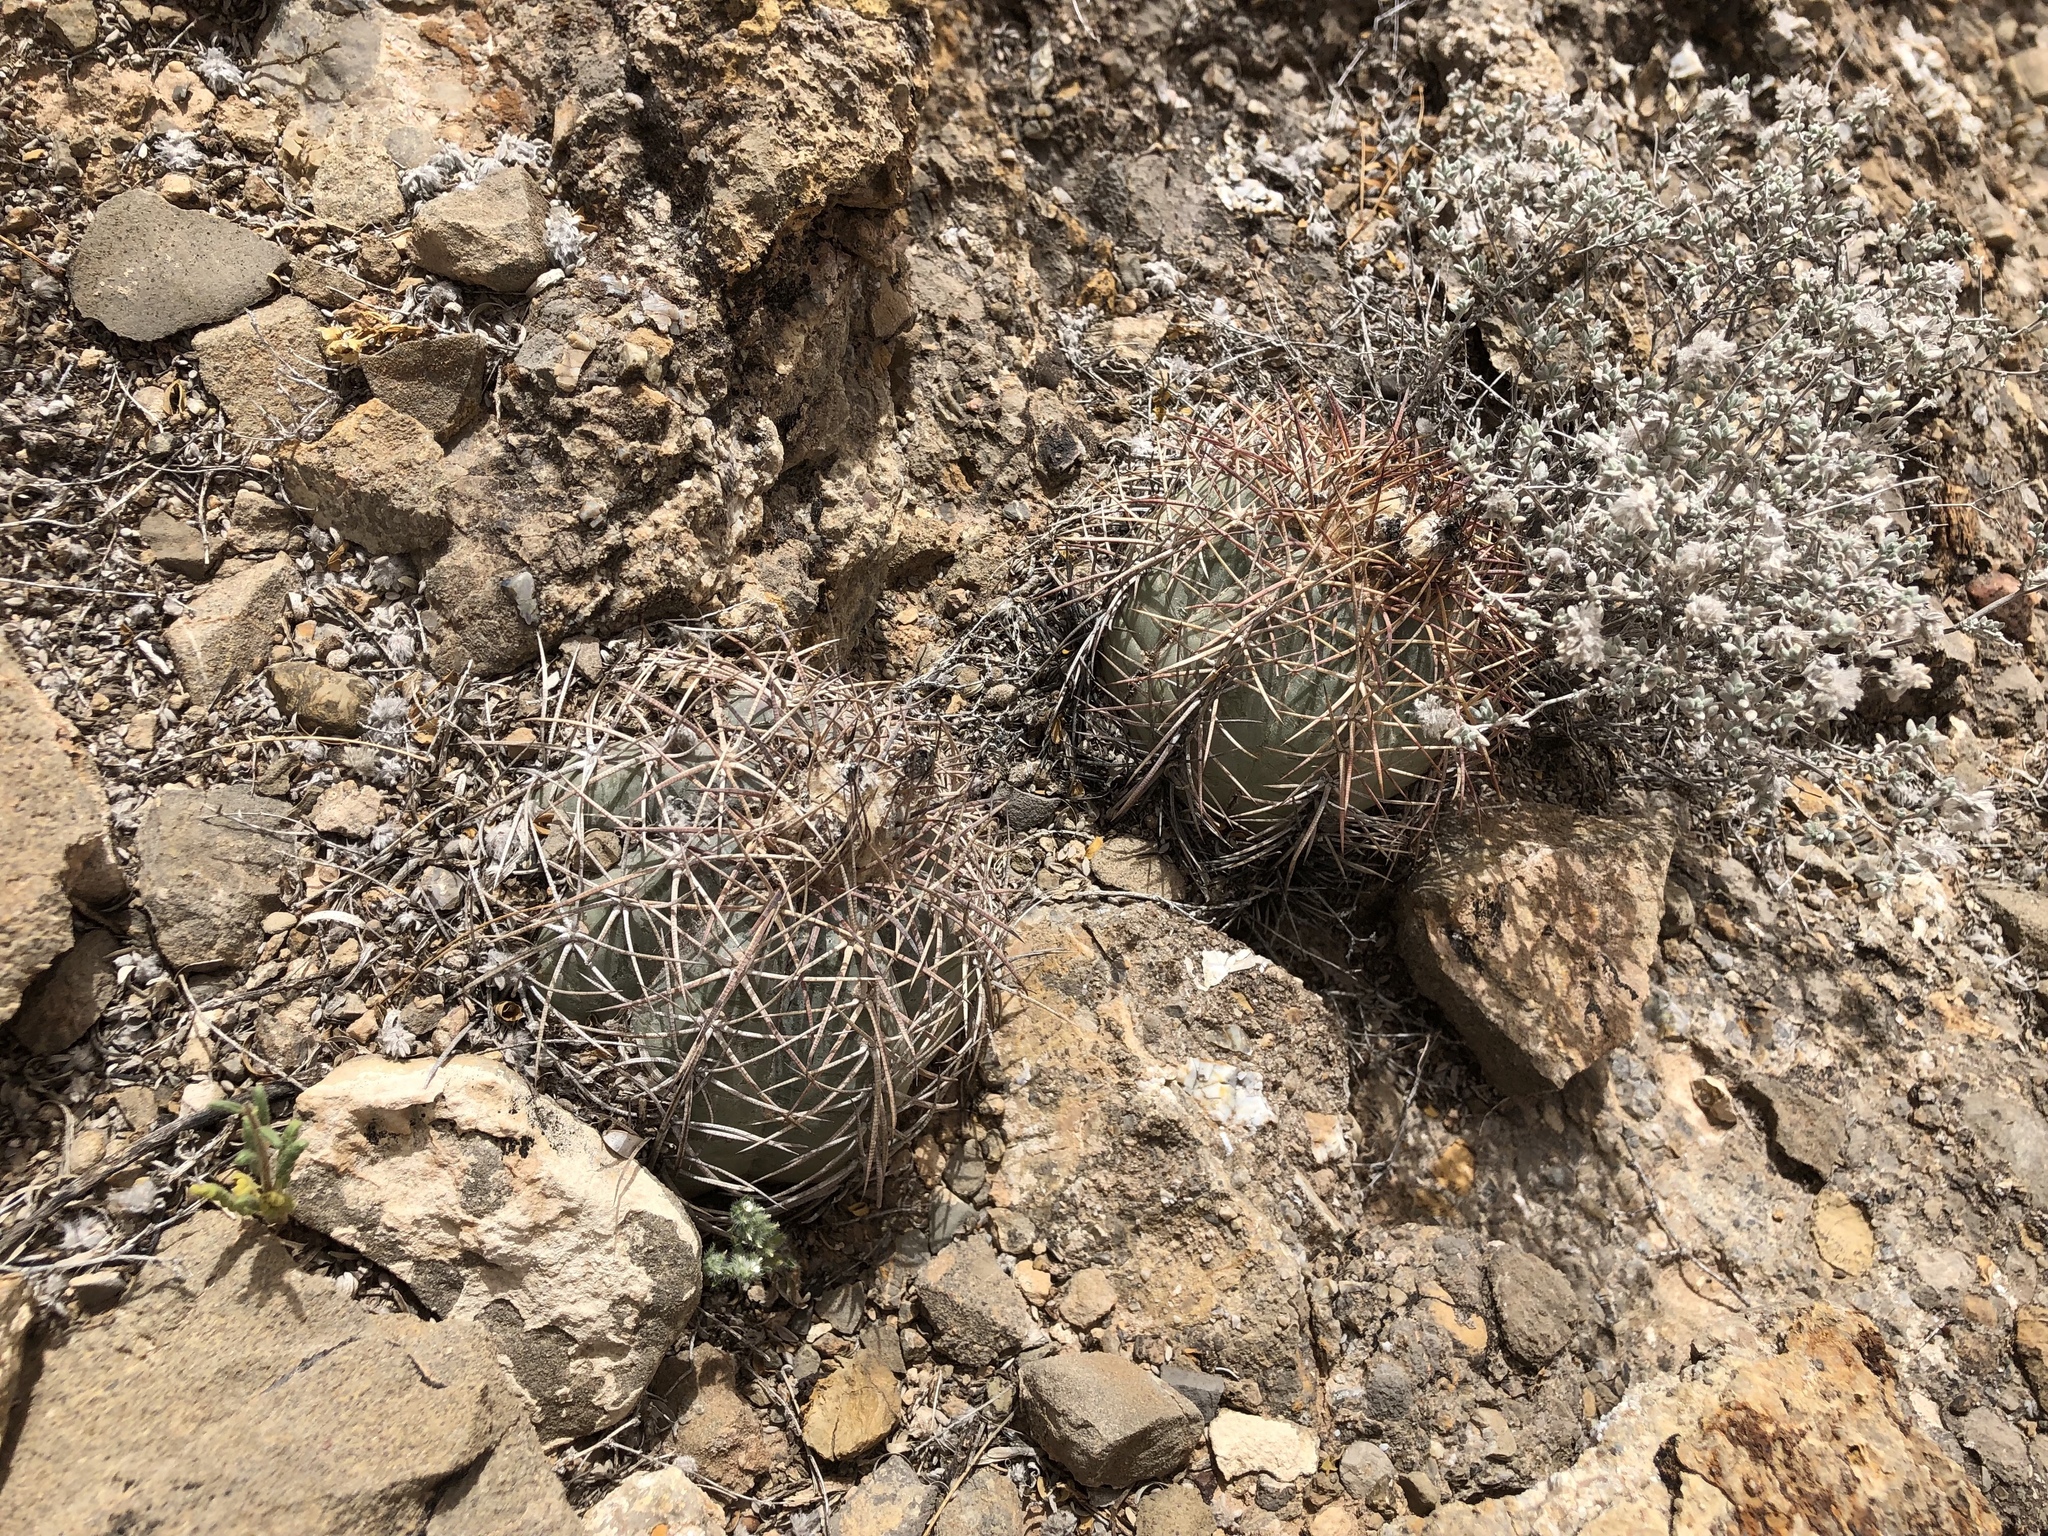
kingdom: Plantae
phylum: Tracheophyta
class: Magnoliopsida
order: Caryophyllales
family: Cactaceae
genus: Echinocactus
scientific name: Echinocactus horizonthalonius
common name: Devilshead
